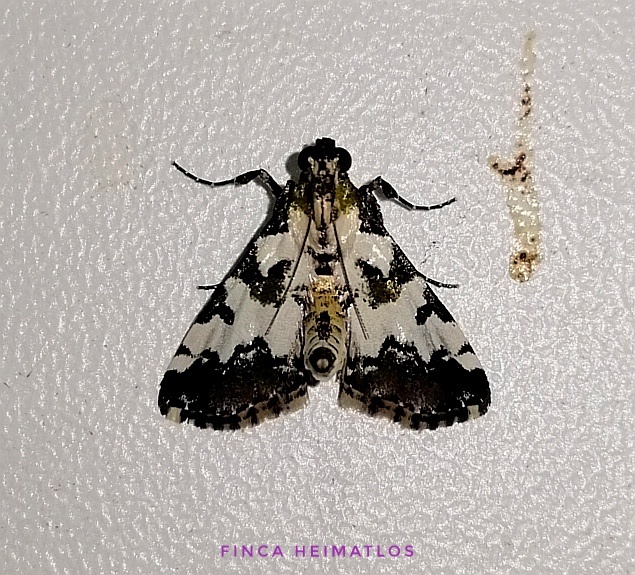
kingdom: Animalia
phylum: Arthropoda
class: Insecta
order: Lepidoptera
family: Pyralidae
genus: Milgithea
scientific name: Milgithea suramisa
